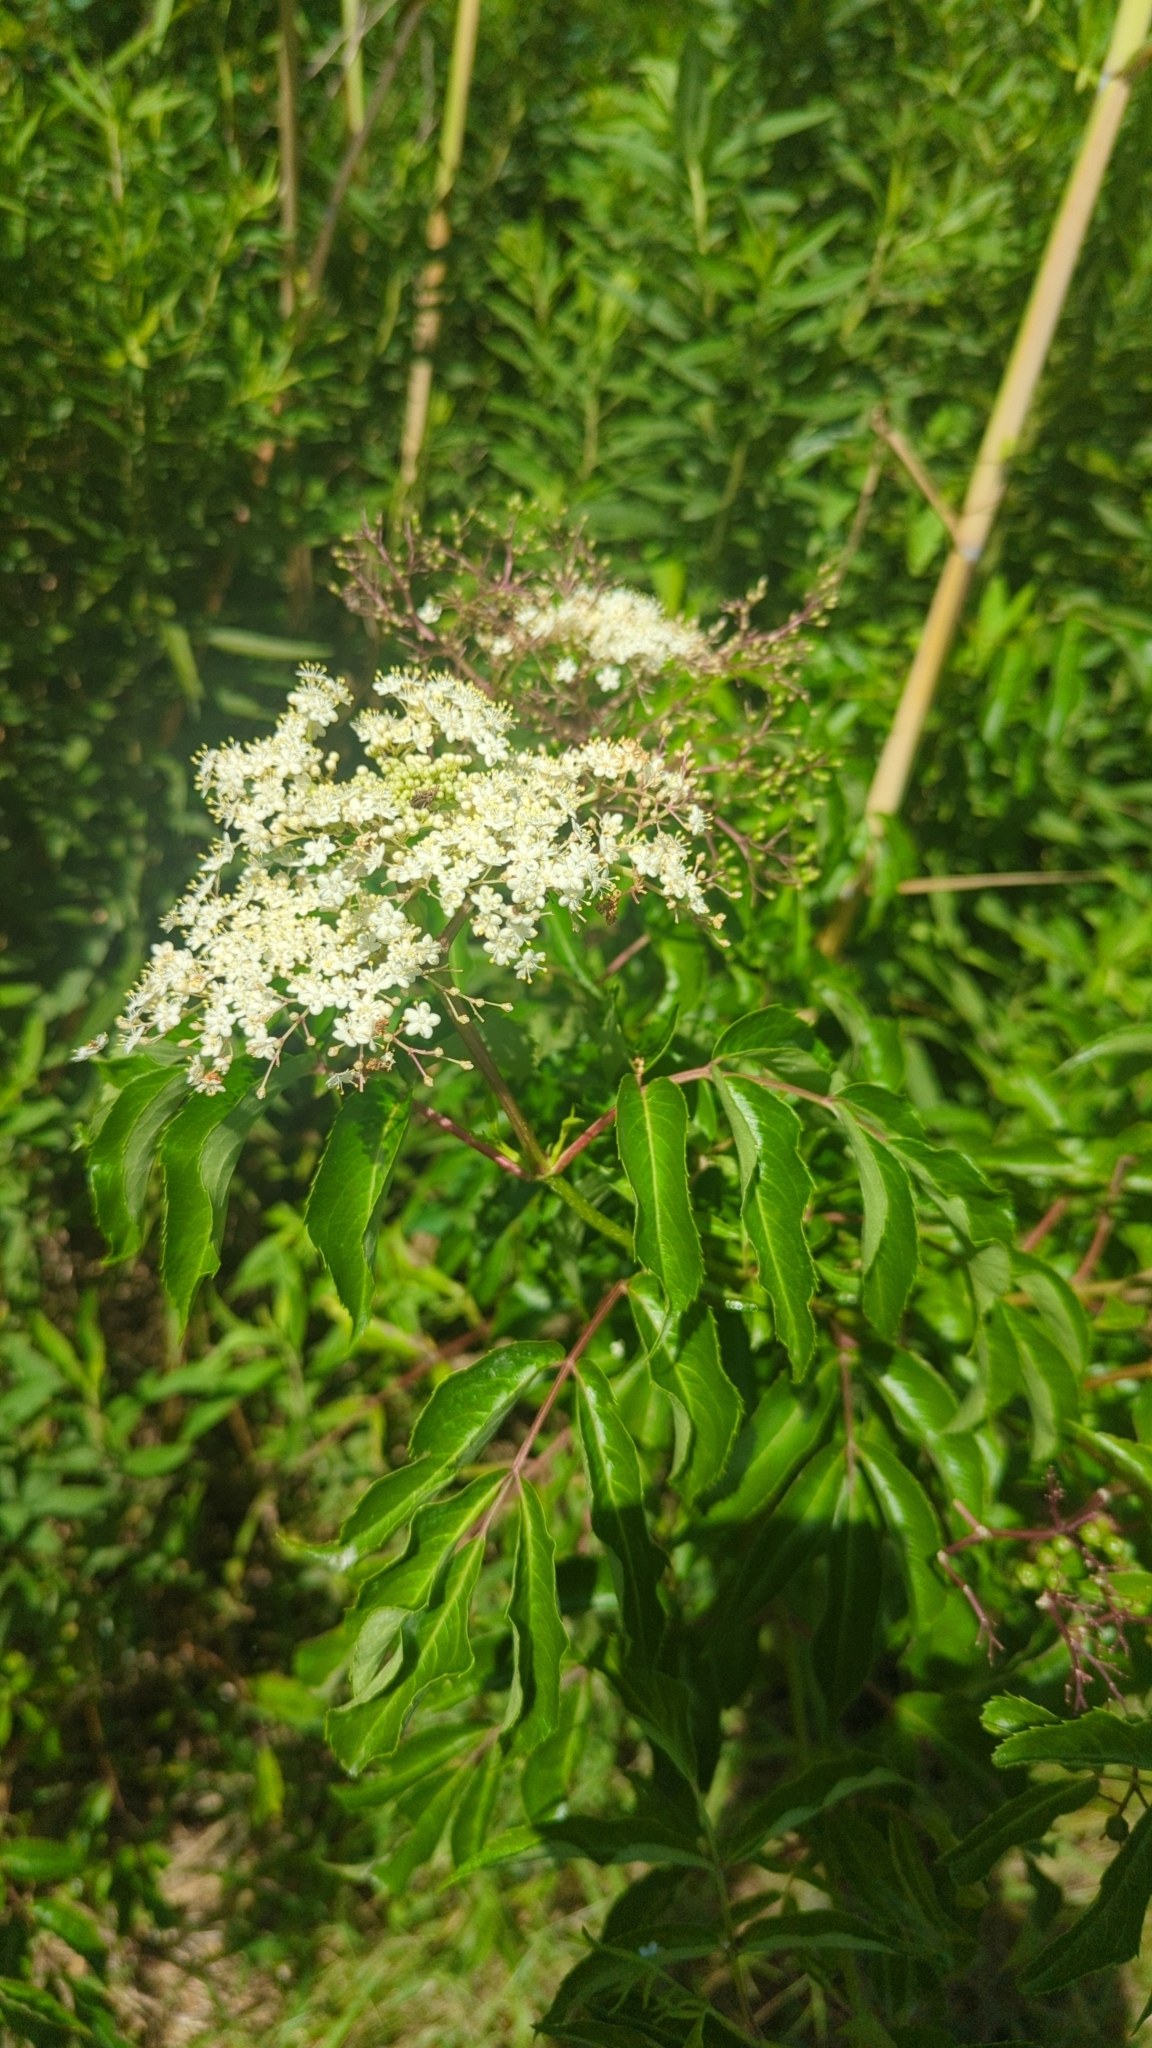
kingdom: Plantae
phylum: Tracheophyta
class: Magnoliopsida
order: Dipsacales
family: Viburnaceae
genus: Sambucus
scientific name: Sambucus canadensis
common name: American elder
